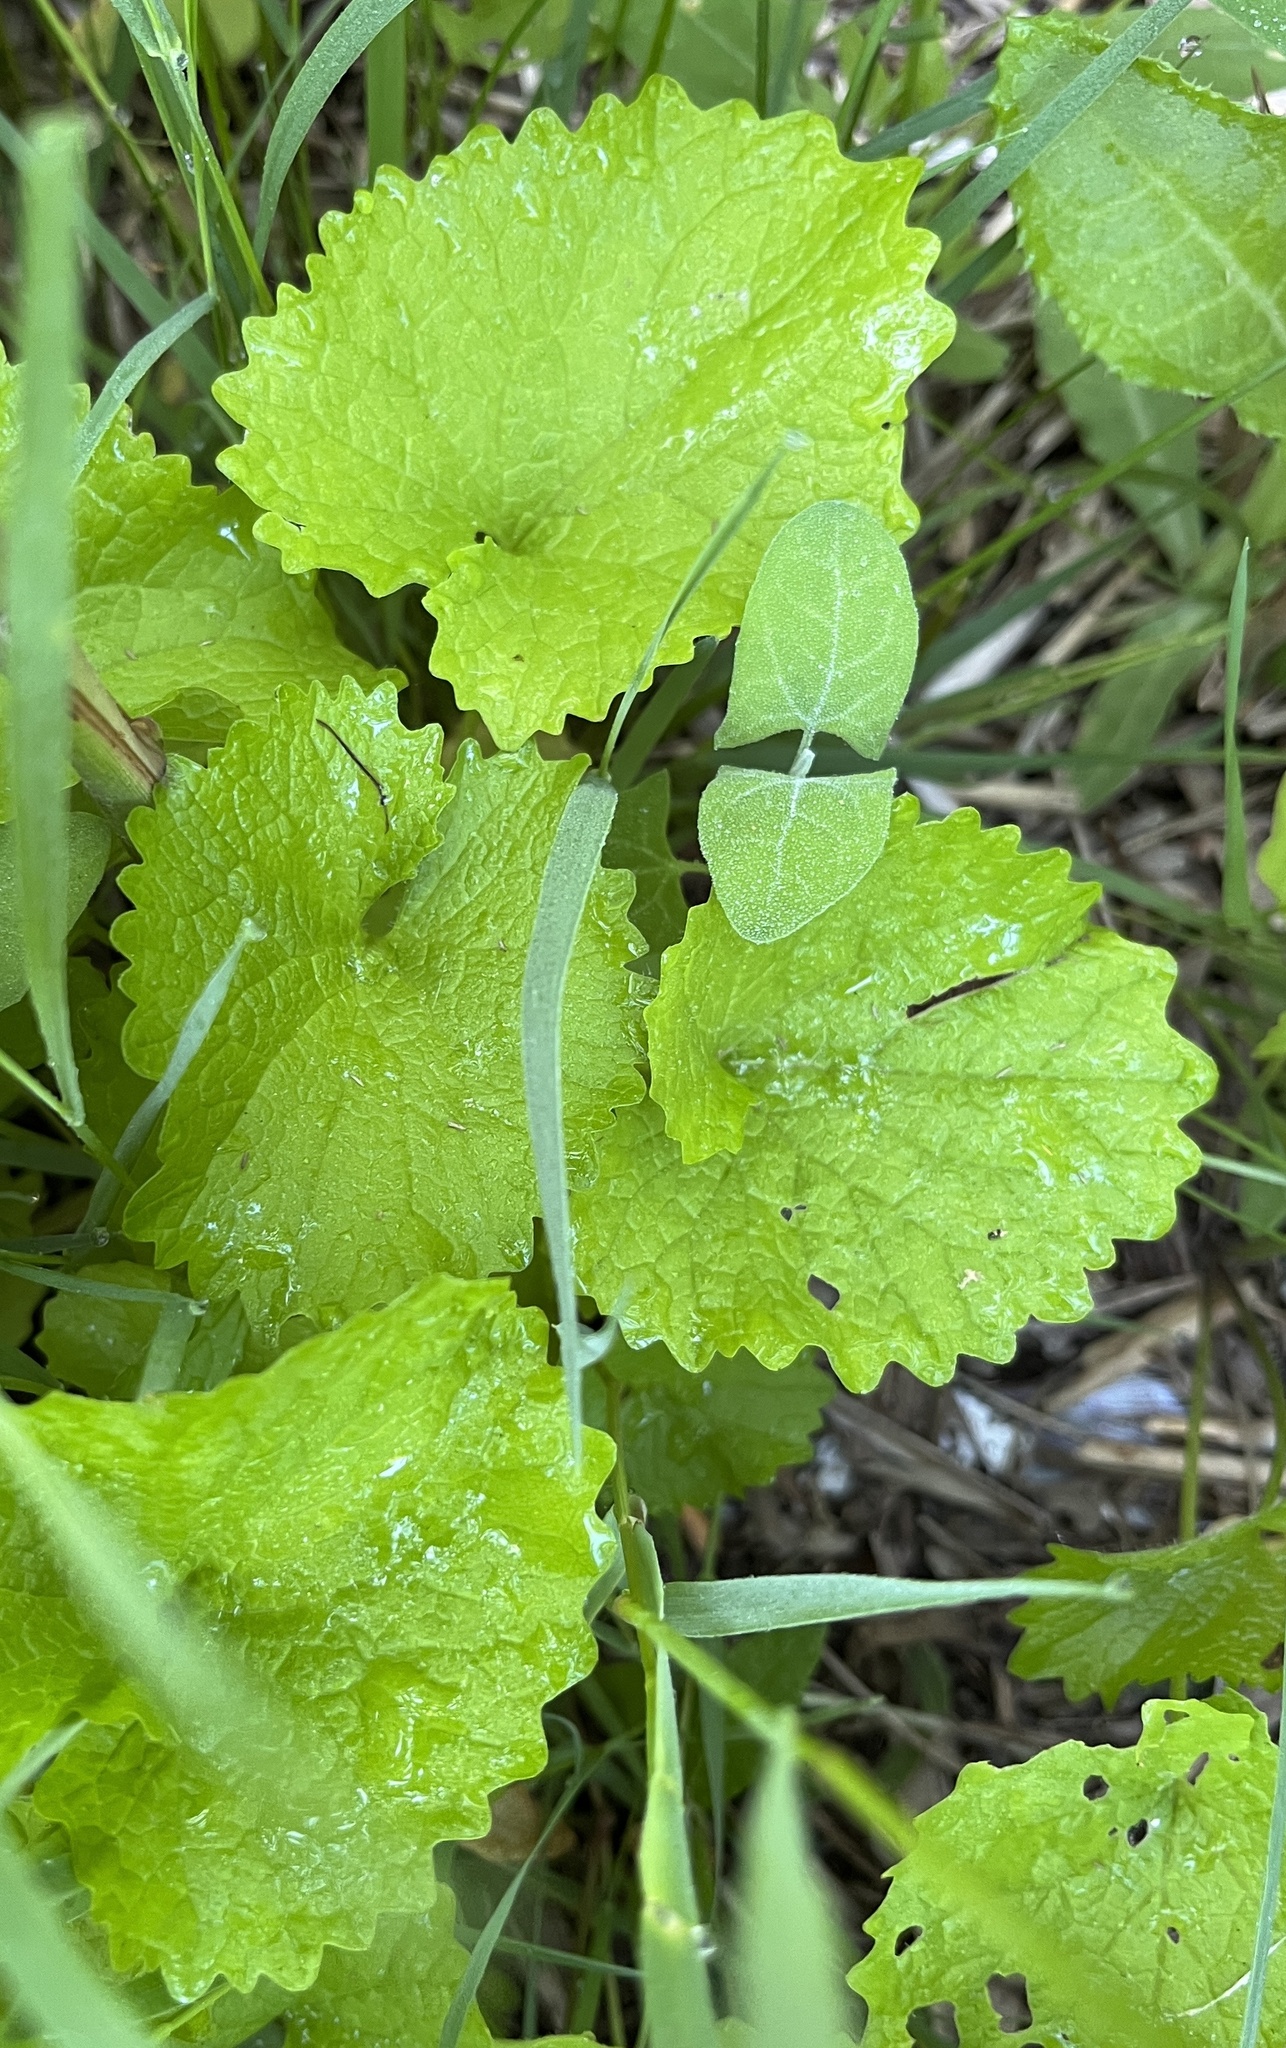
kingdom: Plantae
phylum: Tracheophyta
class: Magnoliopsida
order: Brassicales
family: Brassicaceae
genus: Alliaria
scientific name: Alliaria petiolata
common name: Garlic mustard
